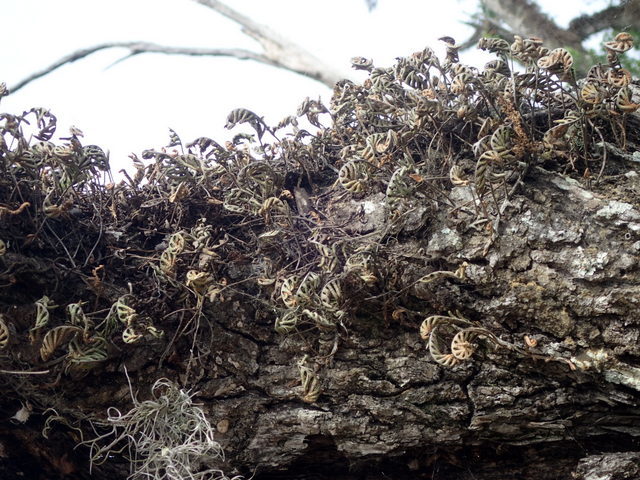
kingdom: Plantae
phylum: Tracheophyta
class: Polypodiopsida
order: Polypodiales
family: Polypodiaceae
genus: Pleopeltis
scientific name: Pleopeltis michauxiana
